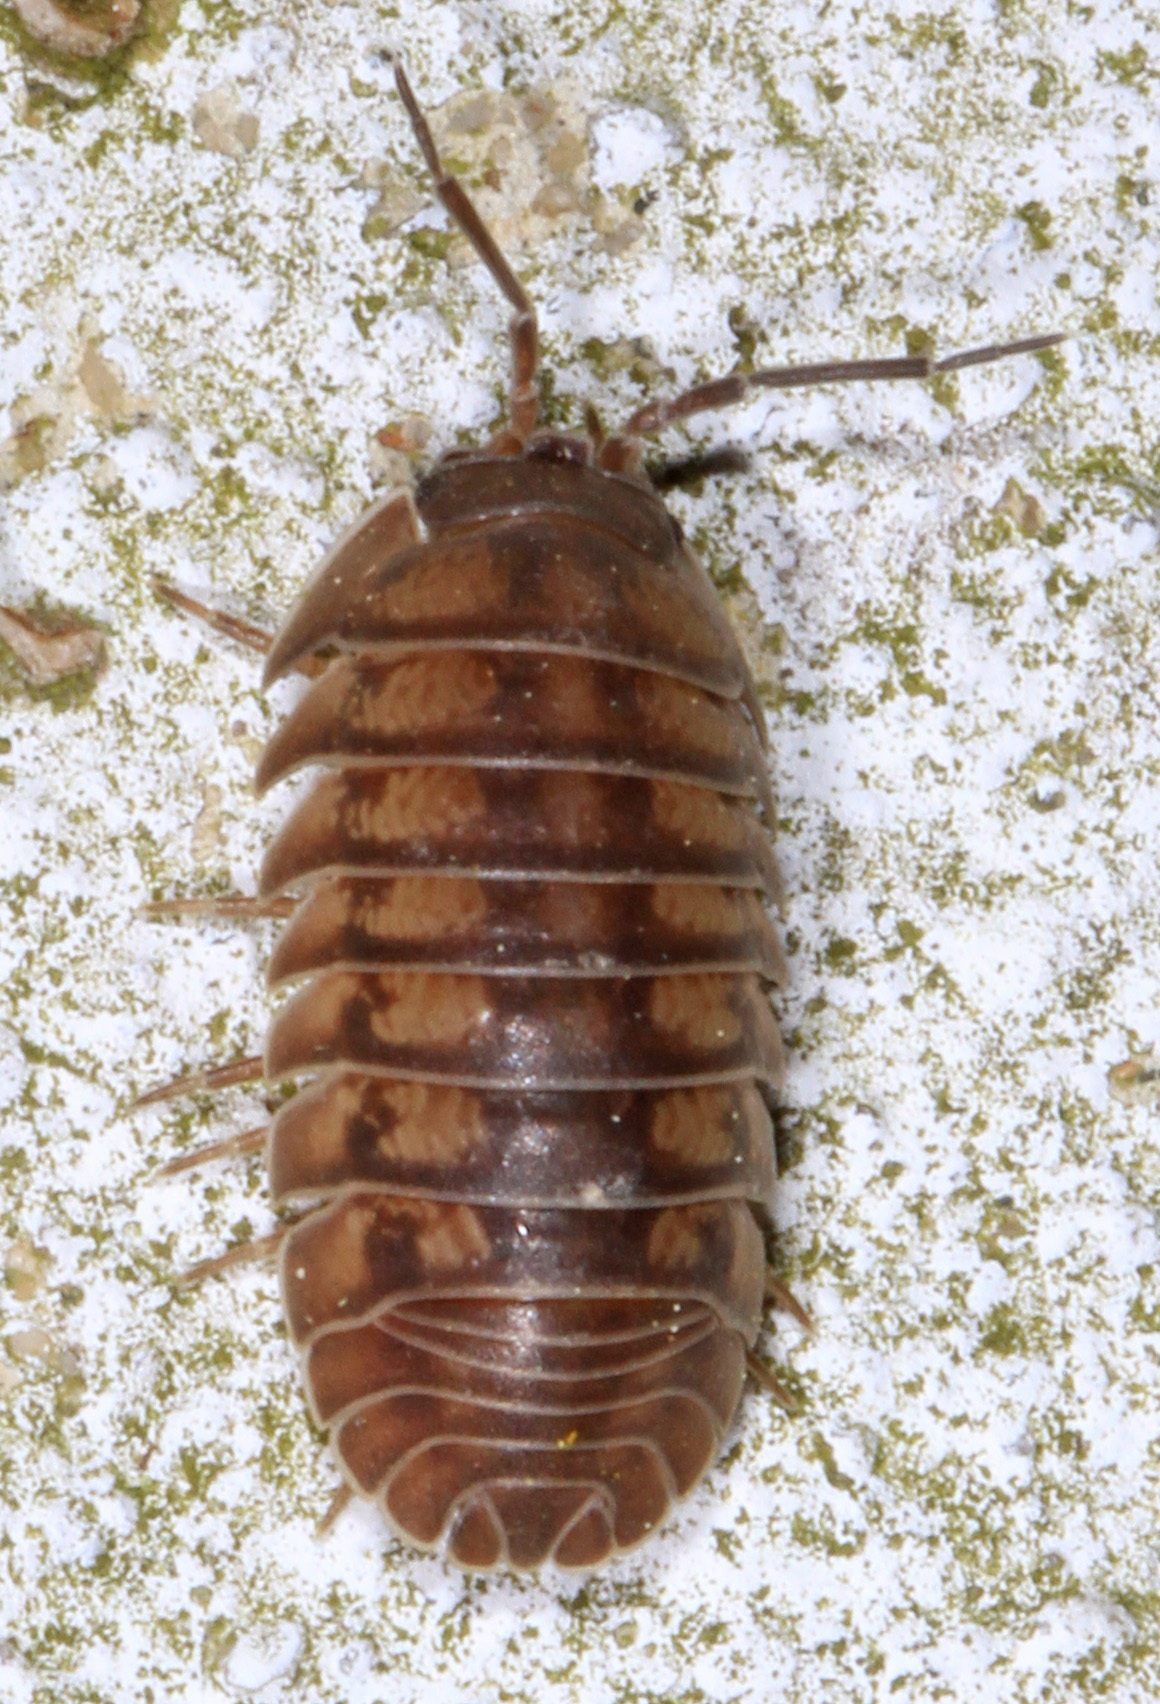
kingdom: Animalia
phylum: Arthropoda
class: Malacostraca
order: Isopoda
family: Armadillidiidae
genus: Armadillidium
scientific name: Armadillidium nasatum
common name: Isopod
